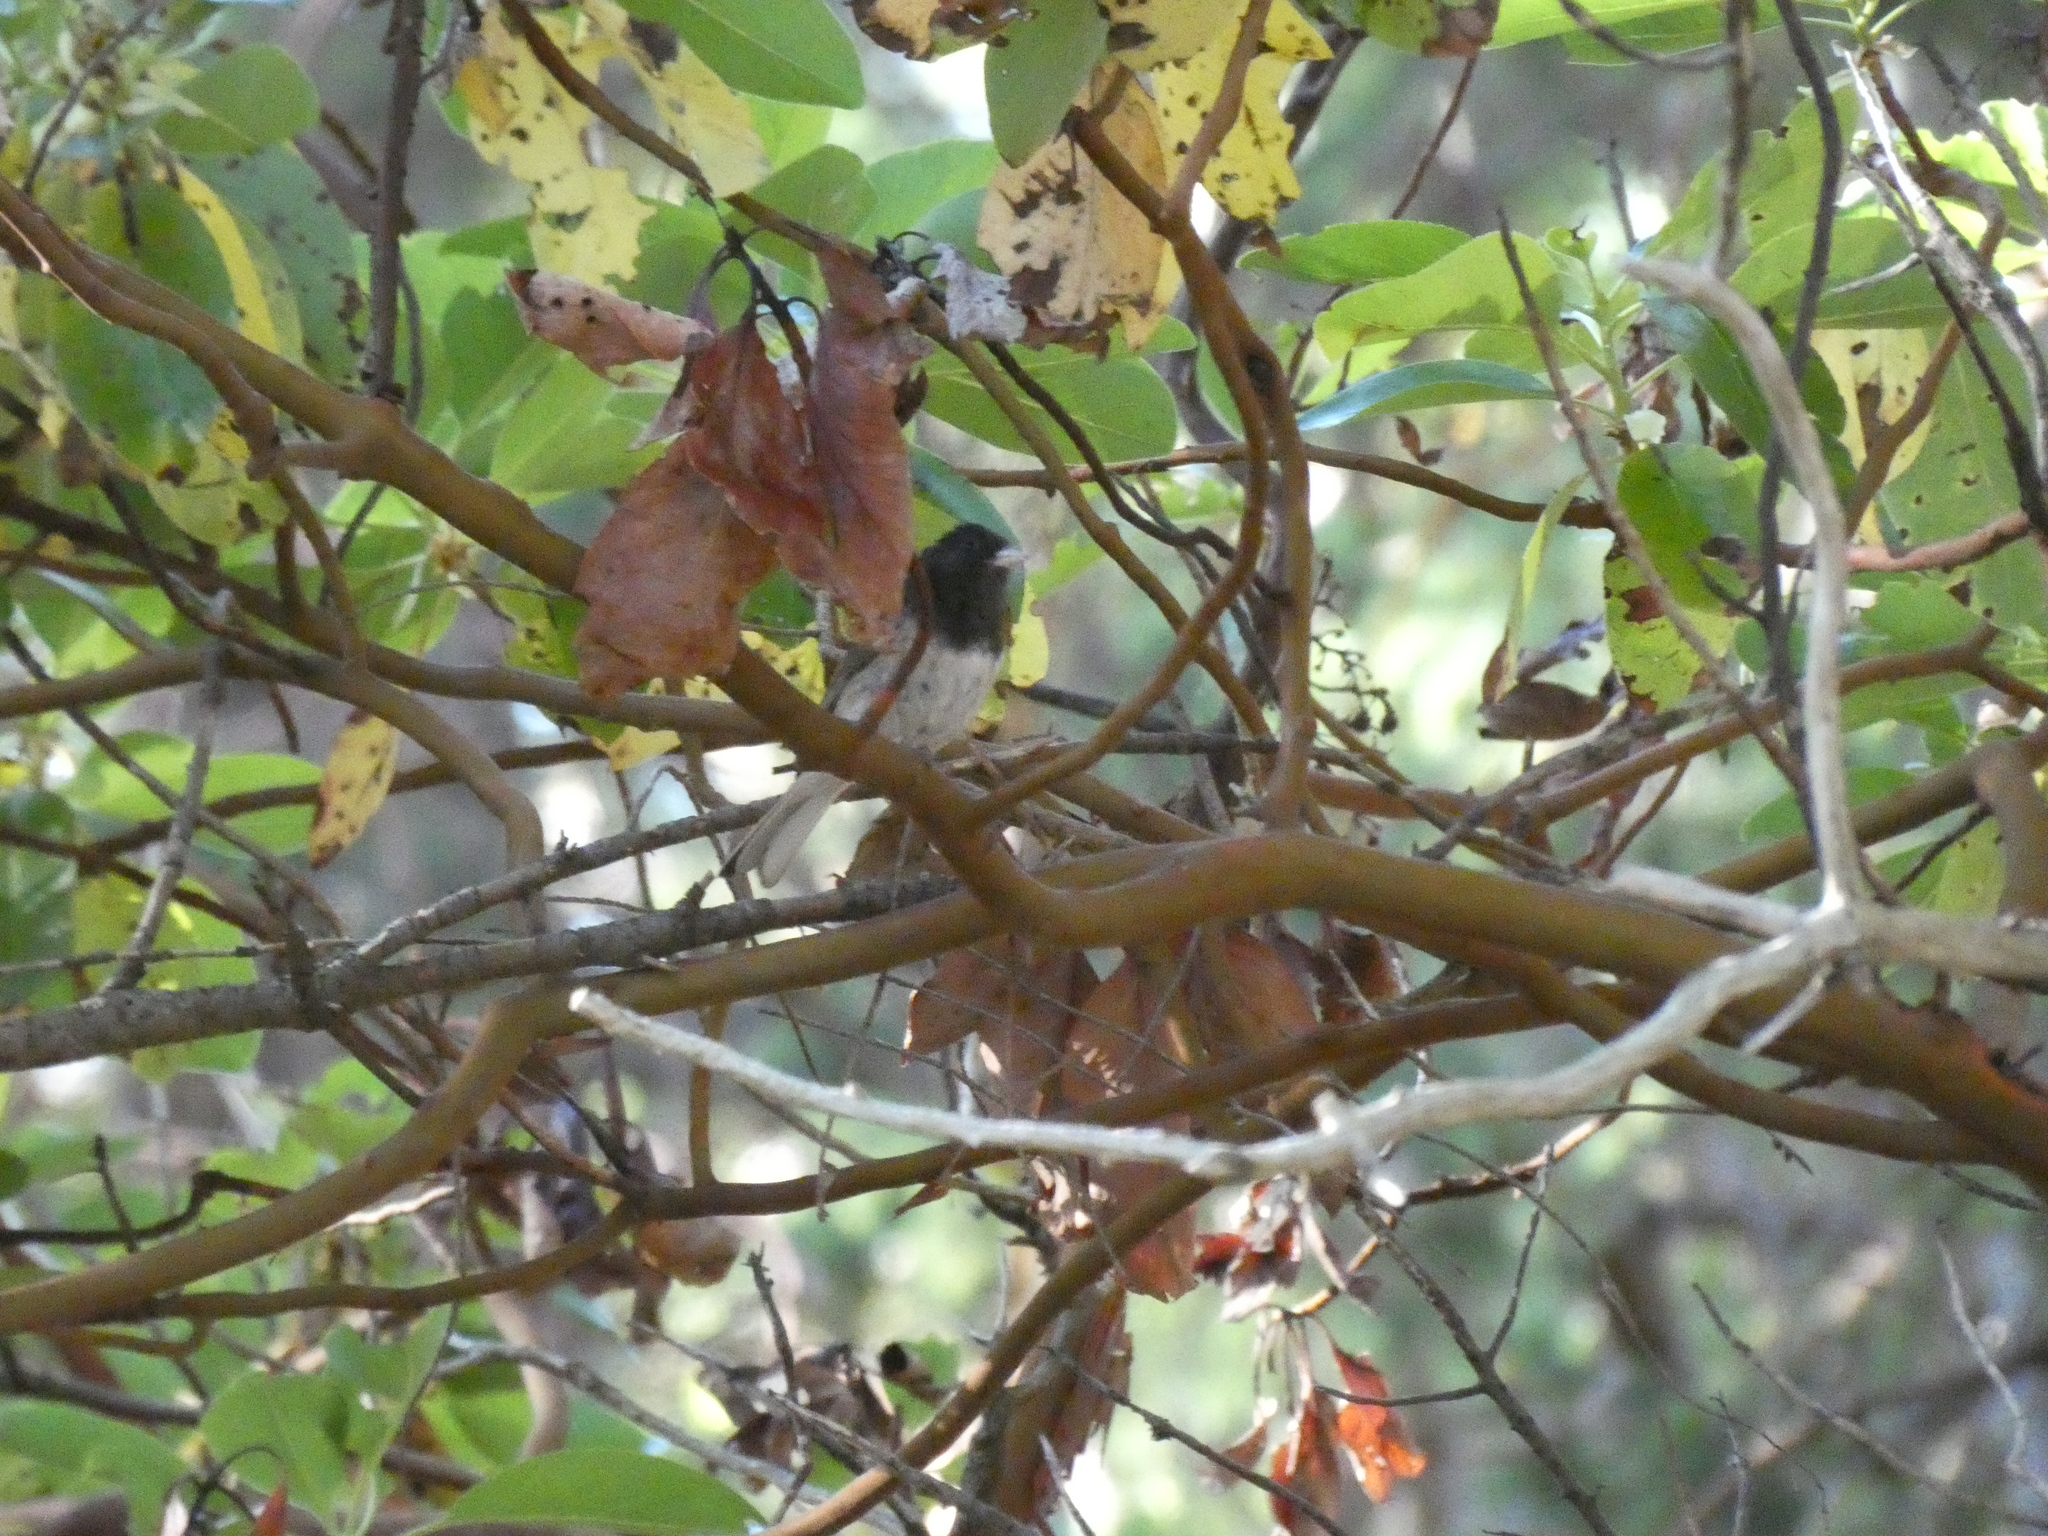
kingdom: Animalia
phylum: Chordata
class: Aves
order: Passeriformes
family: Passerellidae
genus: Junco
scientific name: Junco hyemalis
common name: Dark-eyed junco
